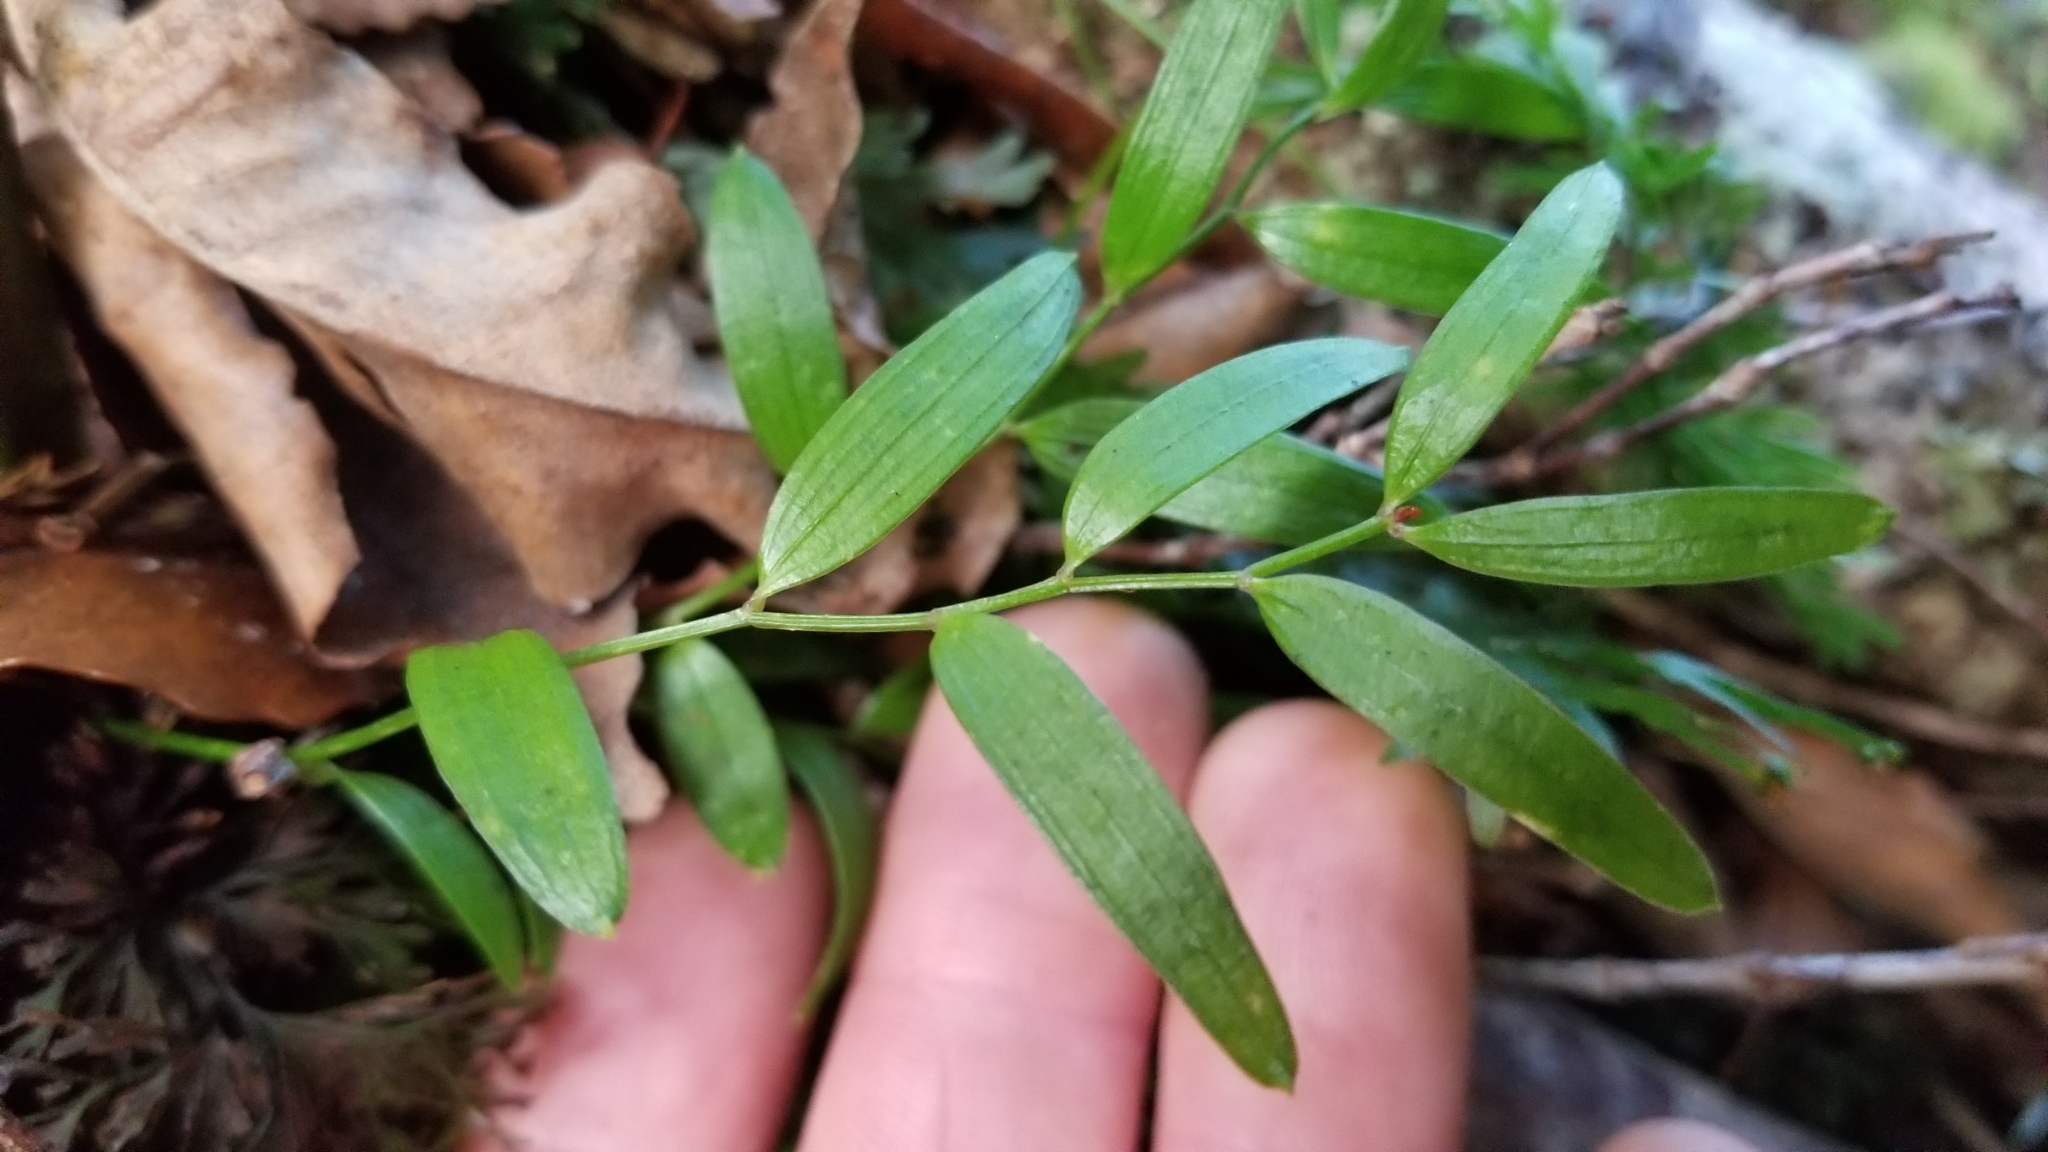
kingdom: Plantae
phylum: Tracheophyta
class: Liliopsida
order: Liliales
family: Alstroemeriaceae
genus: Luzuriaga
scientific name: Luzuriaga parviflora
